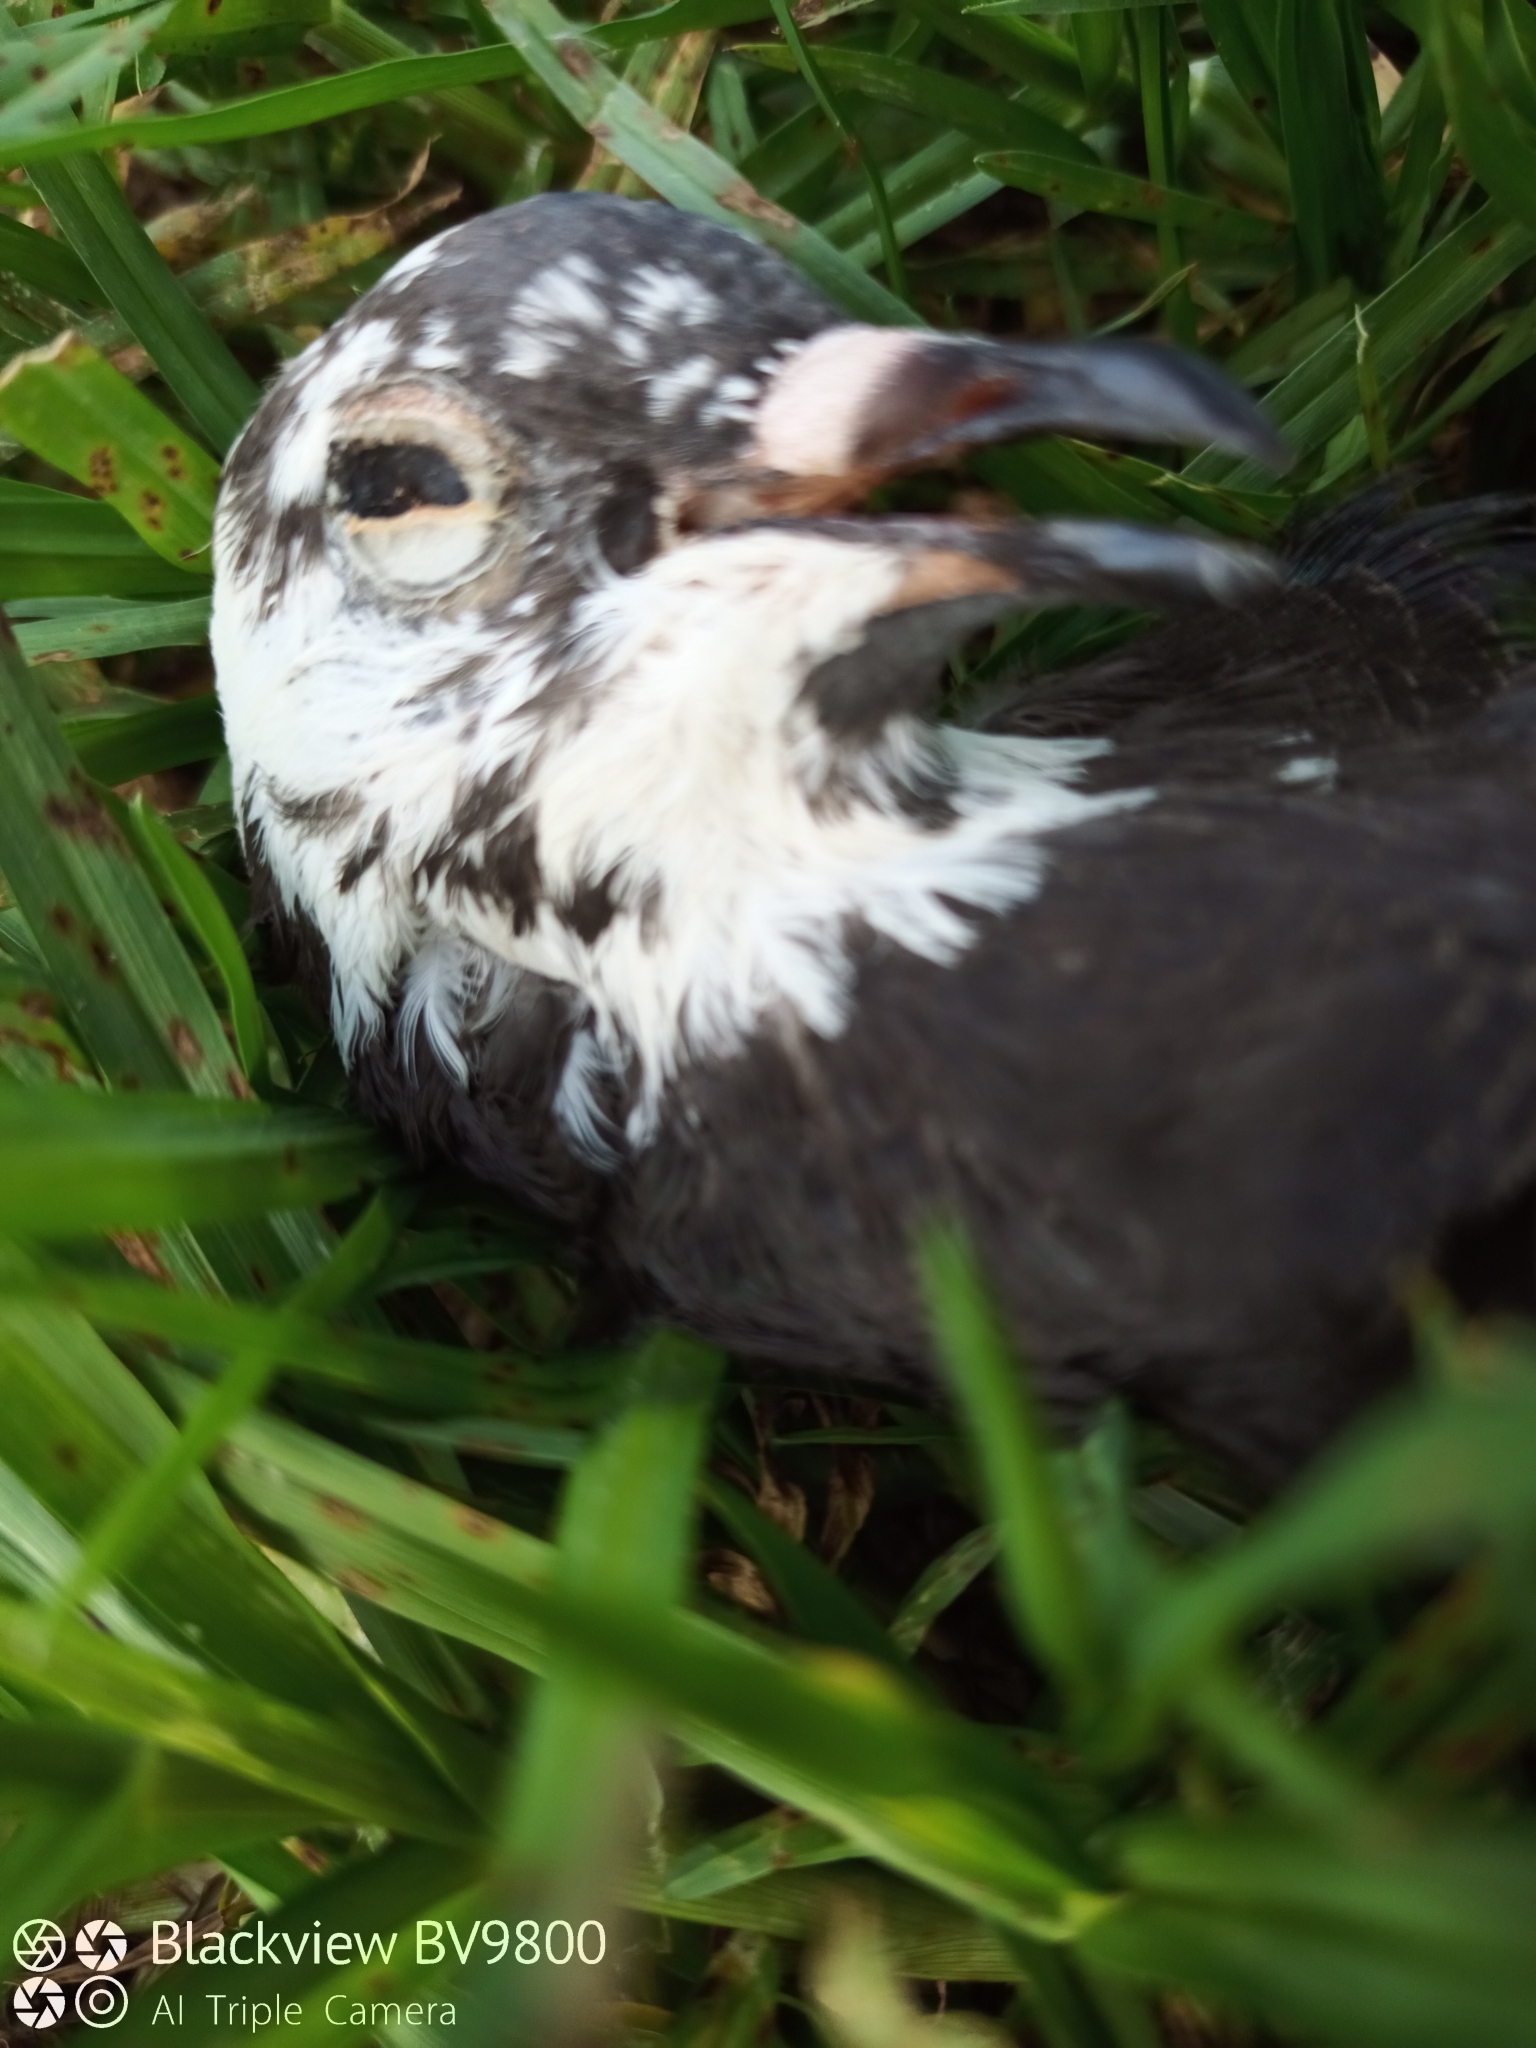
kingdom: Animalia
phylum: Chordata
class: Aves
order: Columbiformes
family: Columbidae
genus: Columba
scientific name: Columba livia
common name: Rock pigeon
